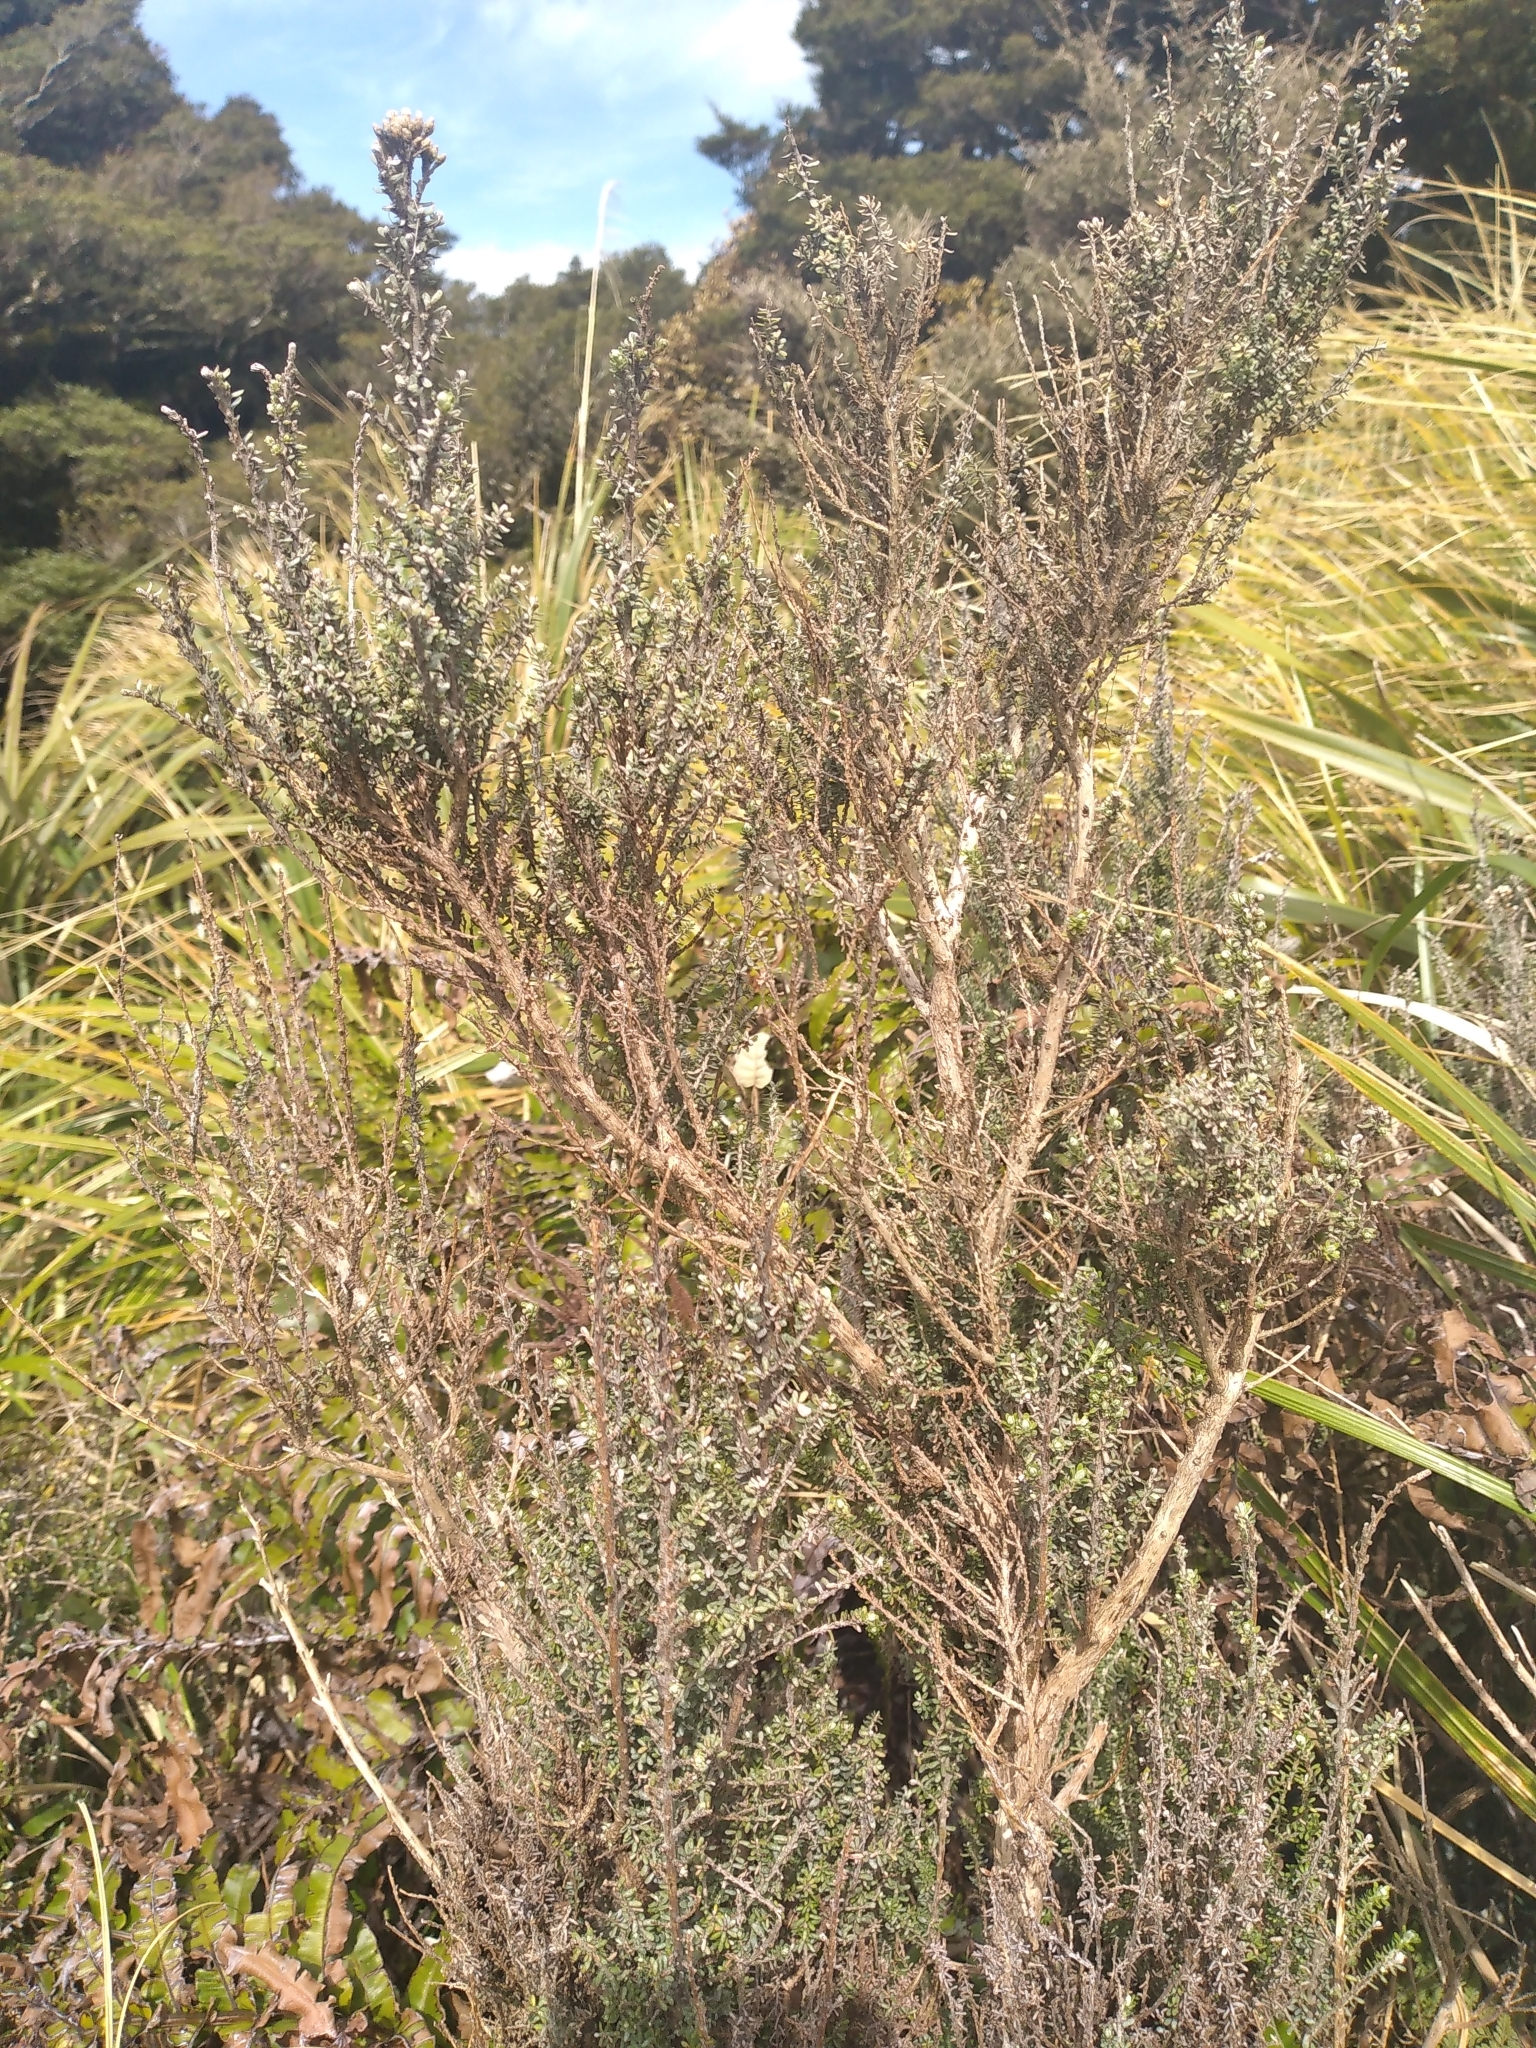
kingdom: Plantae
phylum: Tracheophyta
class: Magnoliopsida
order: Asterales
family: Asteraceae
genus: Ozothamnus
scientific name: Ozothamnus leptophyllus
